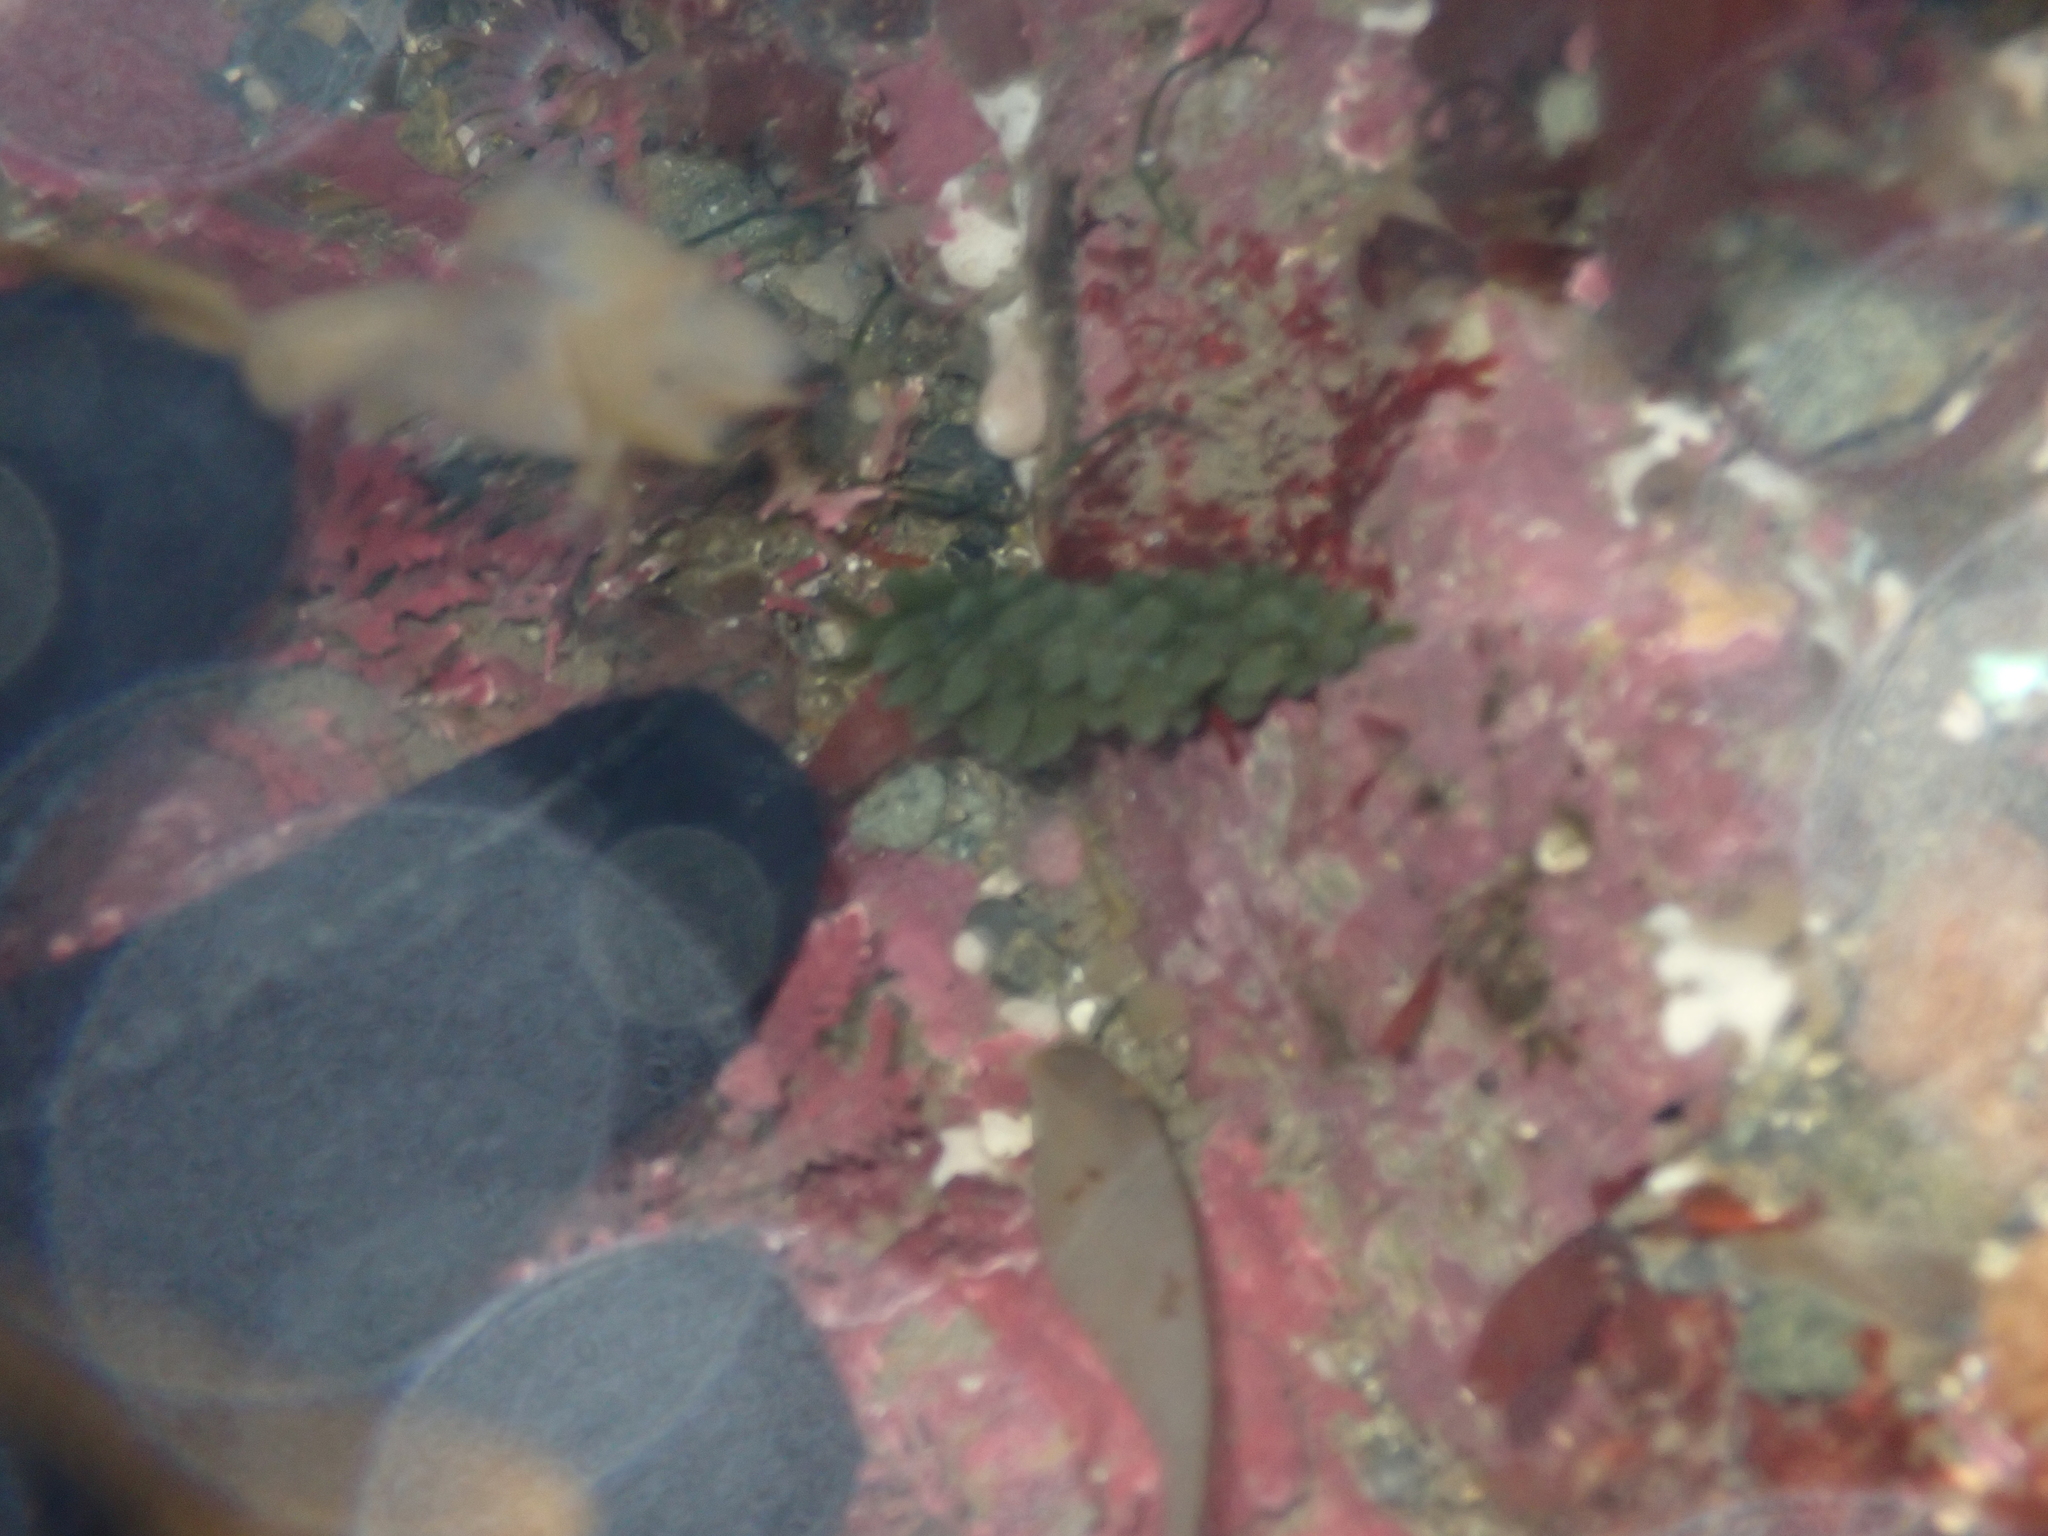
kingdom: Animalia
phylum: Mollusca
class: Gastropoda
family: Limapontiidae
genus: Sacoproteus
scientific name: Sacoproteus smaragdinus
